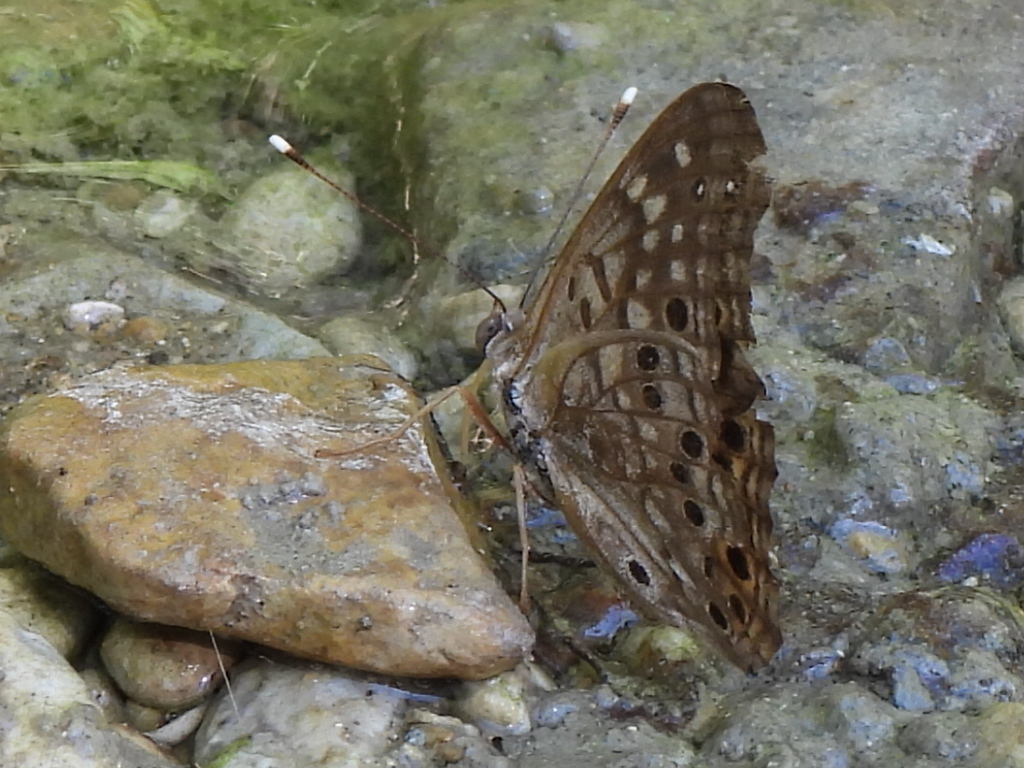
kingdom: Animalia
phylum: Arthropoda
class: Insecta
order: Lepidoptera
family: Nymphalidae
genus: Asterocampa
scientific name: Asterocampa celtis
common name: Hackberry emperor
